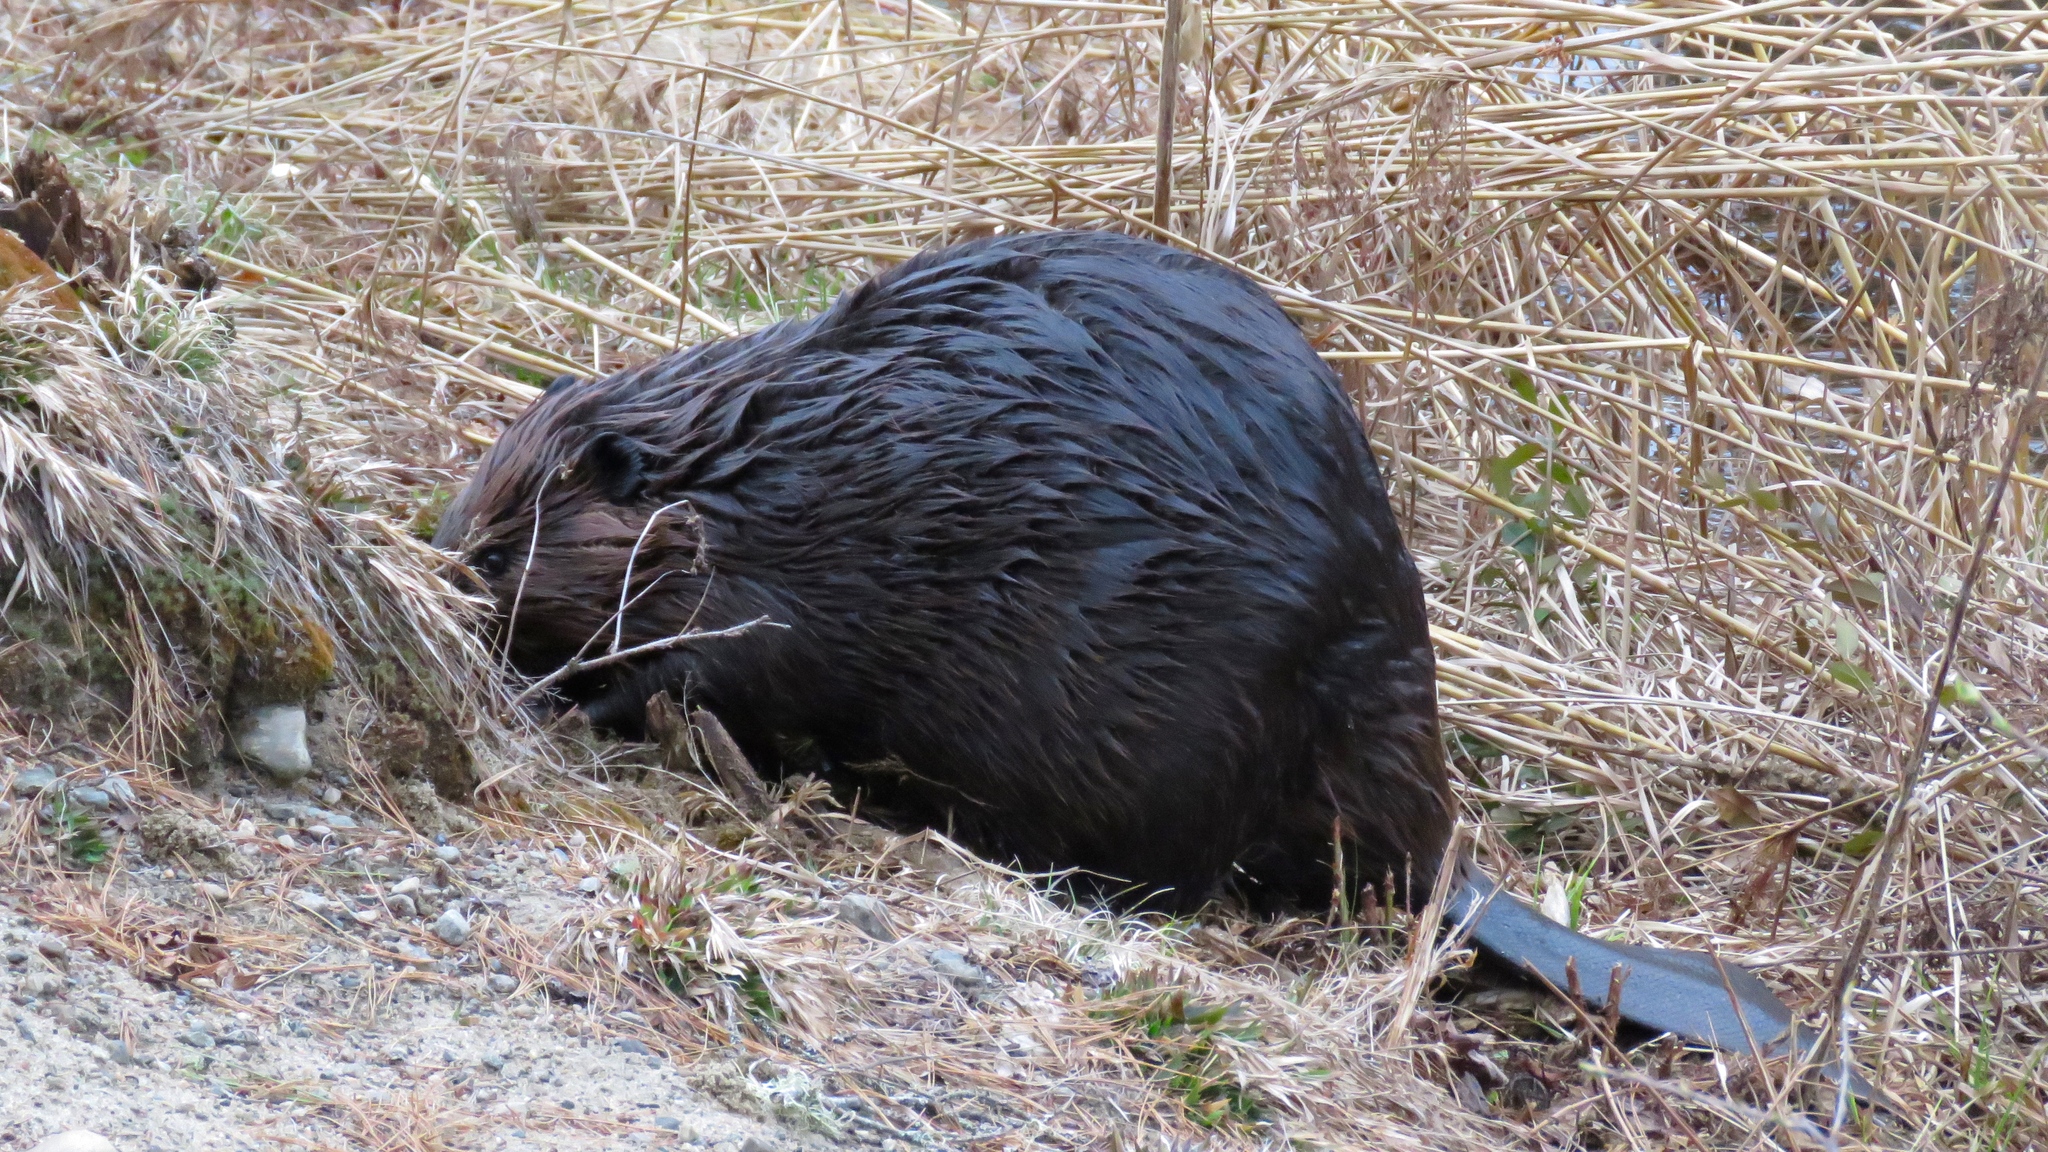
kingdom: Animalia
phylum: Chordata
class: Mammalia
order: Rodentia
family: Castoridae
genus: Castor
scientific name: Castor canadensis
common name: American beaver
